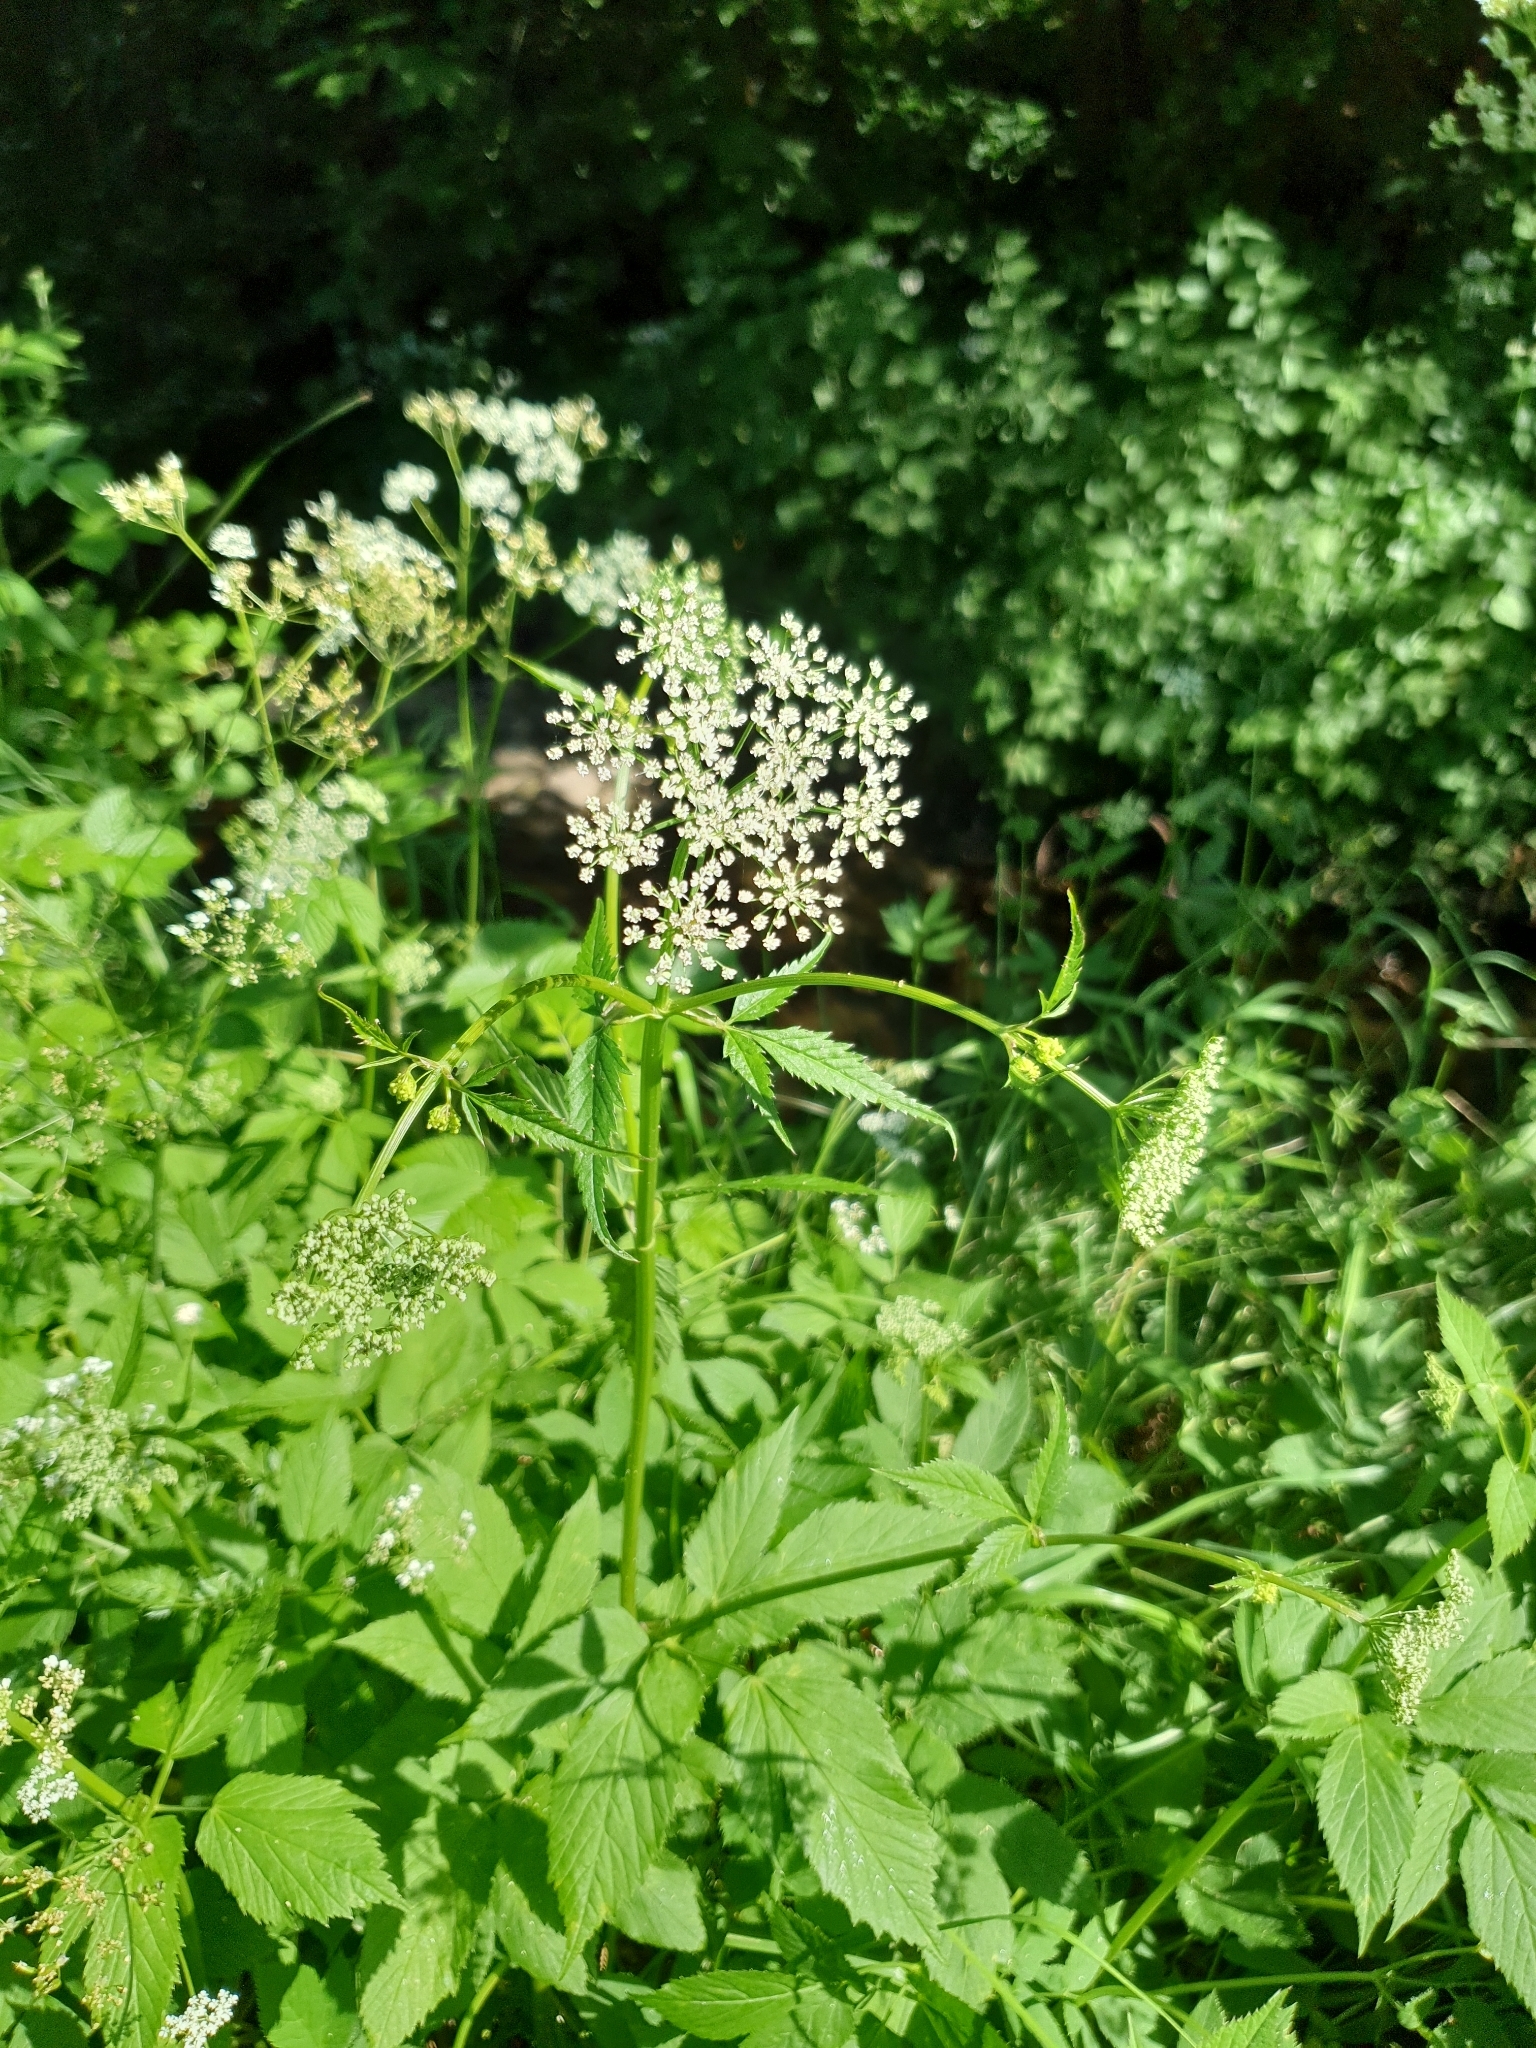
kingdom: Plantae
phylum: Tracheophyta
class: Magnoliopsida
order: Apiales
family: Apiaceae
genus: Aegopodium
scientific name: Aegopodium podagraria
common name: Ground-elder
